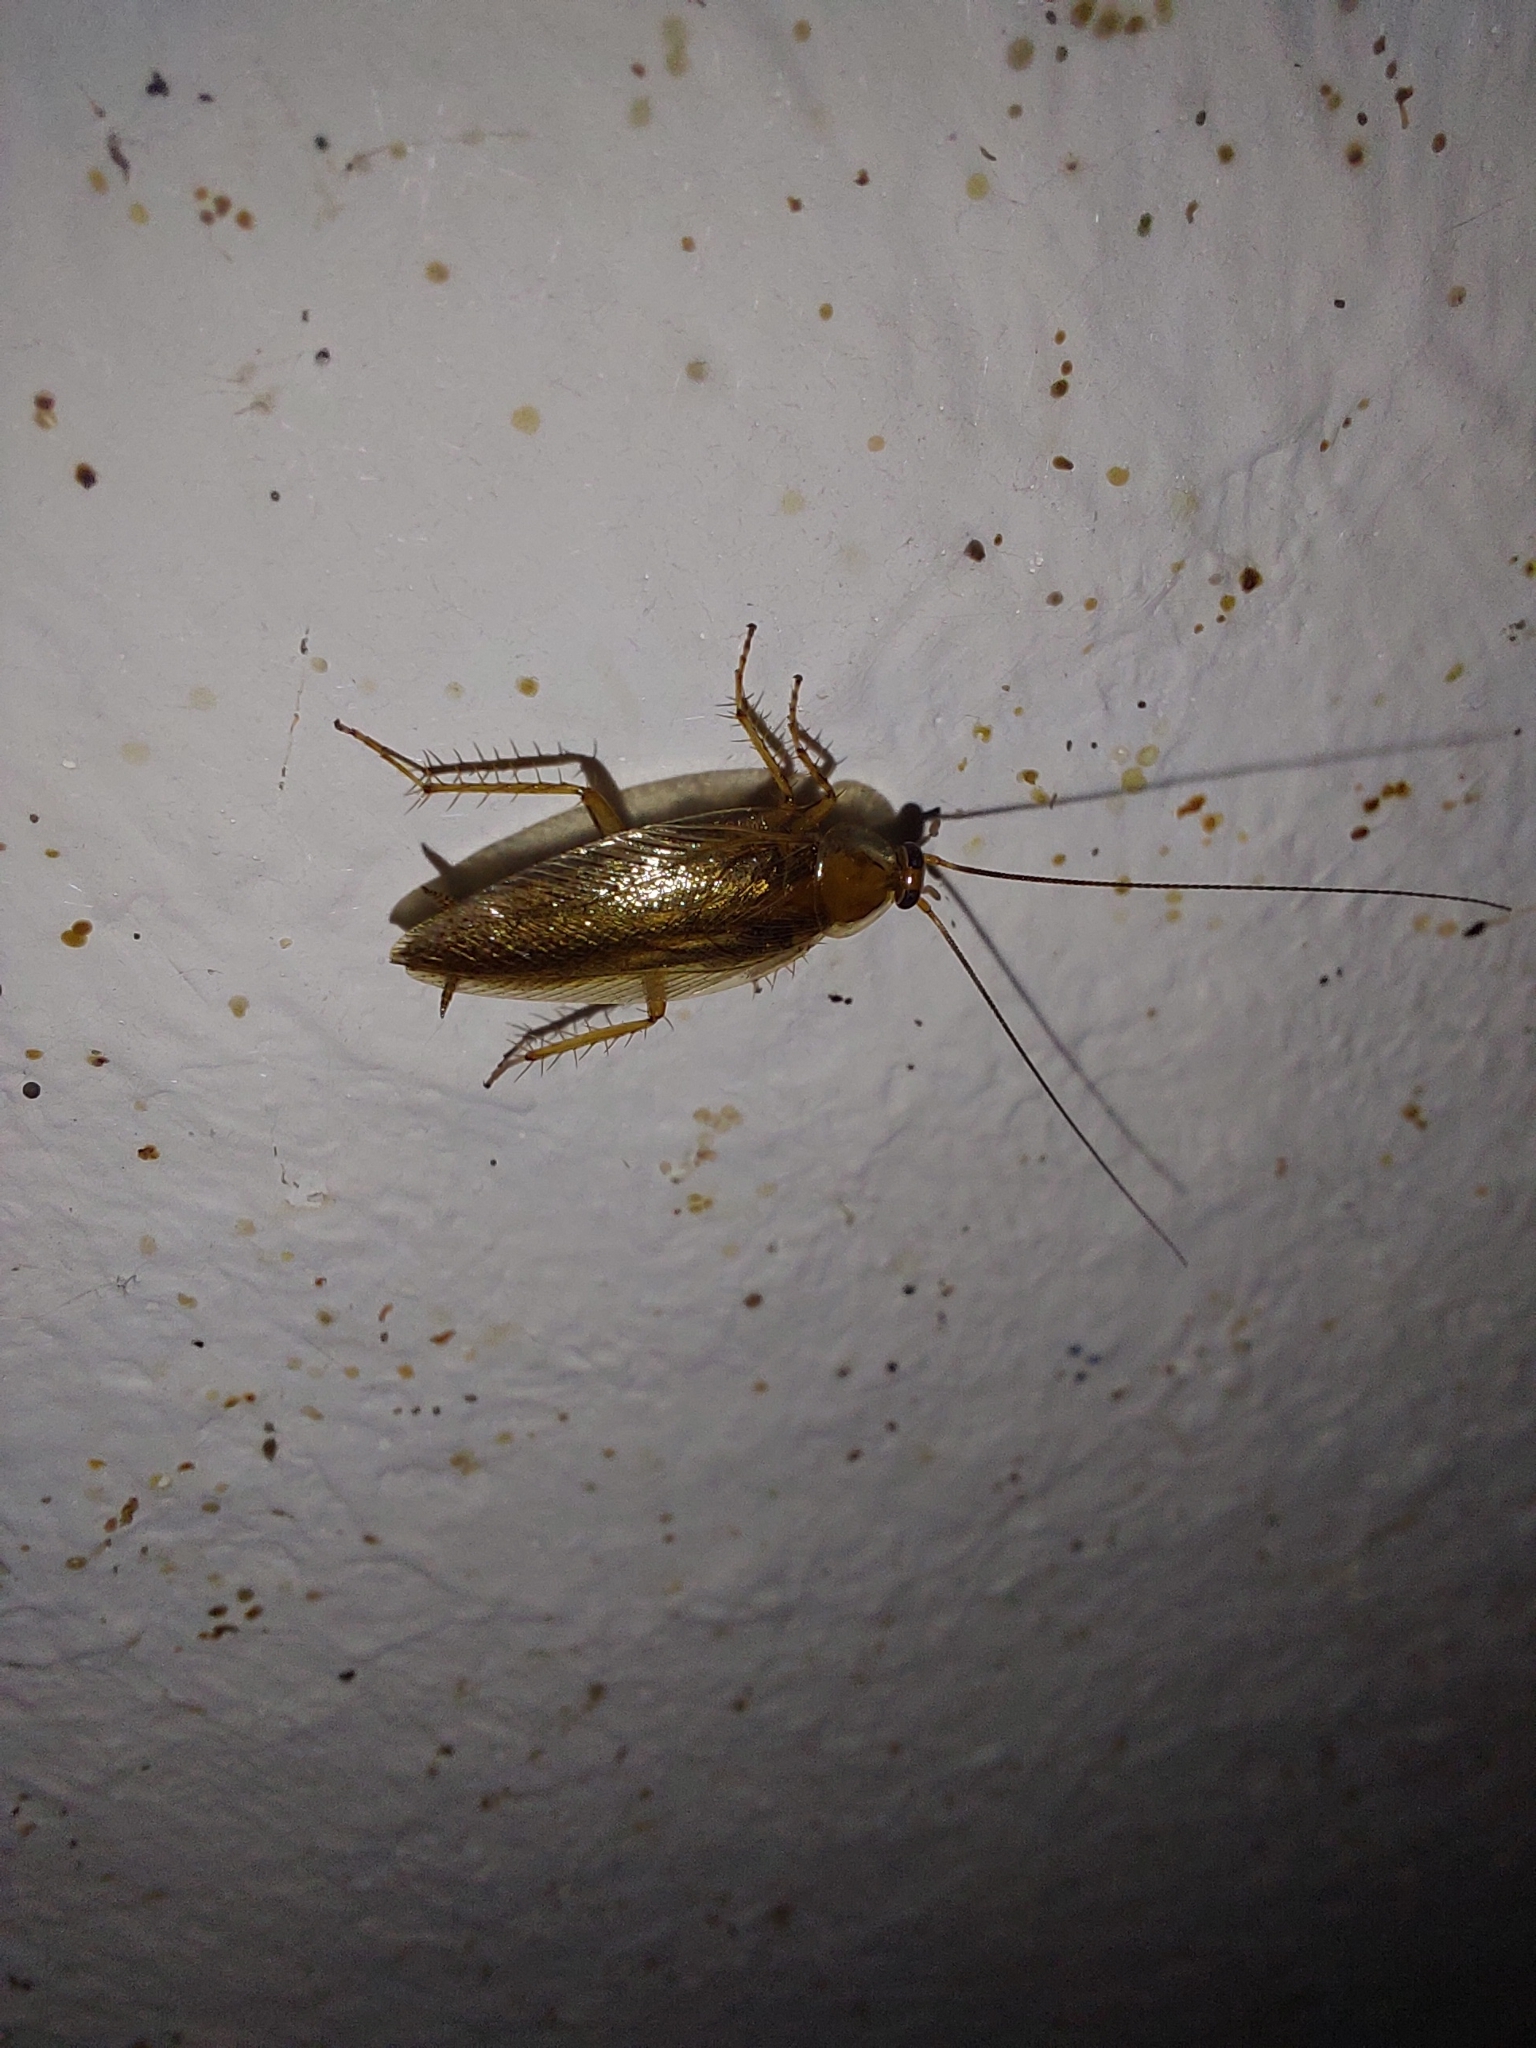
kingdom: Animalia
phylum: Arthropoda
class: Insecta
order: Blattodea
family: Ectobiidae
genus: Ectobius
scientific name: Ectobius vittiventris
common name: Garden cockroach
